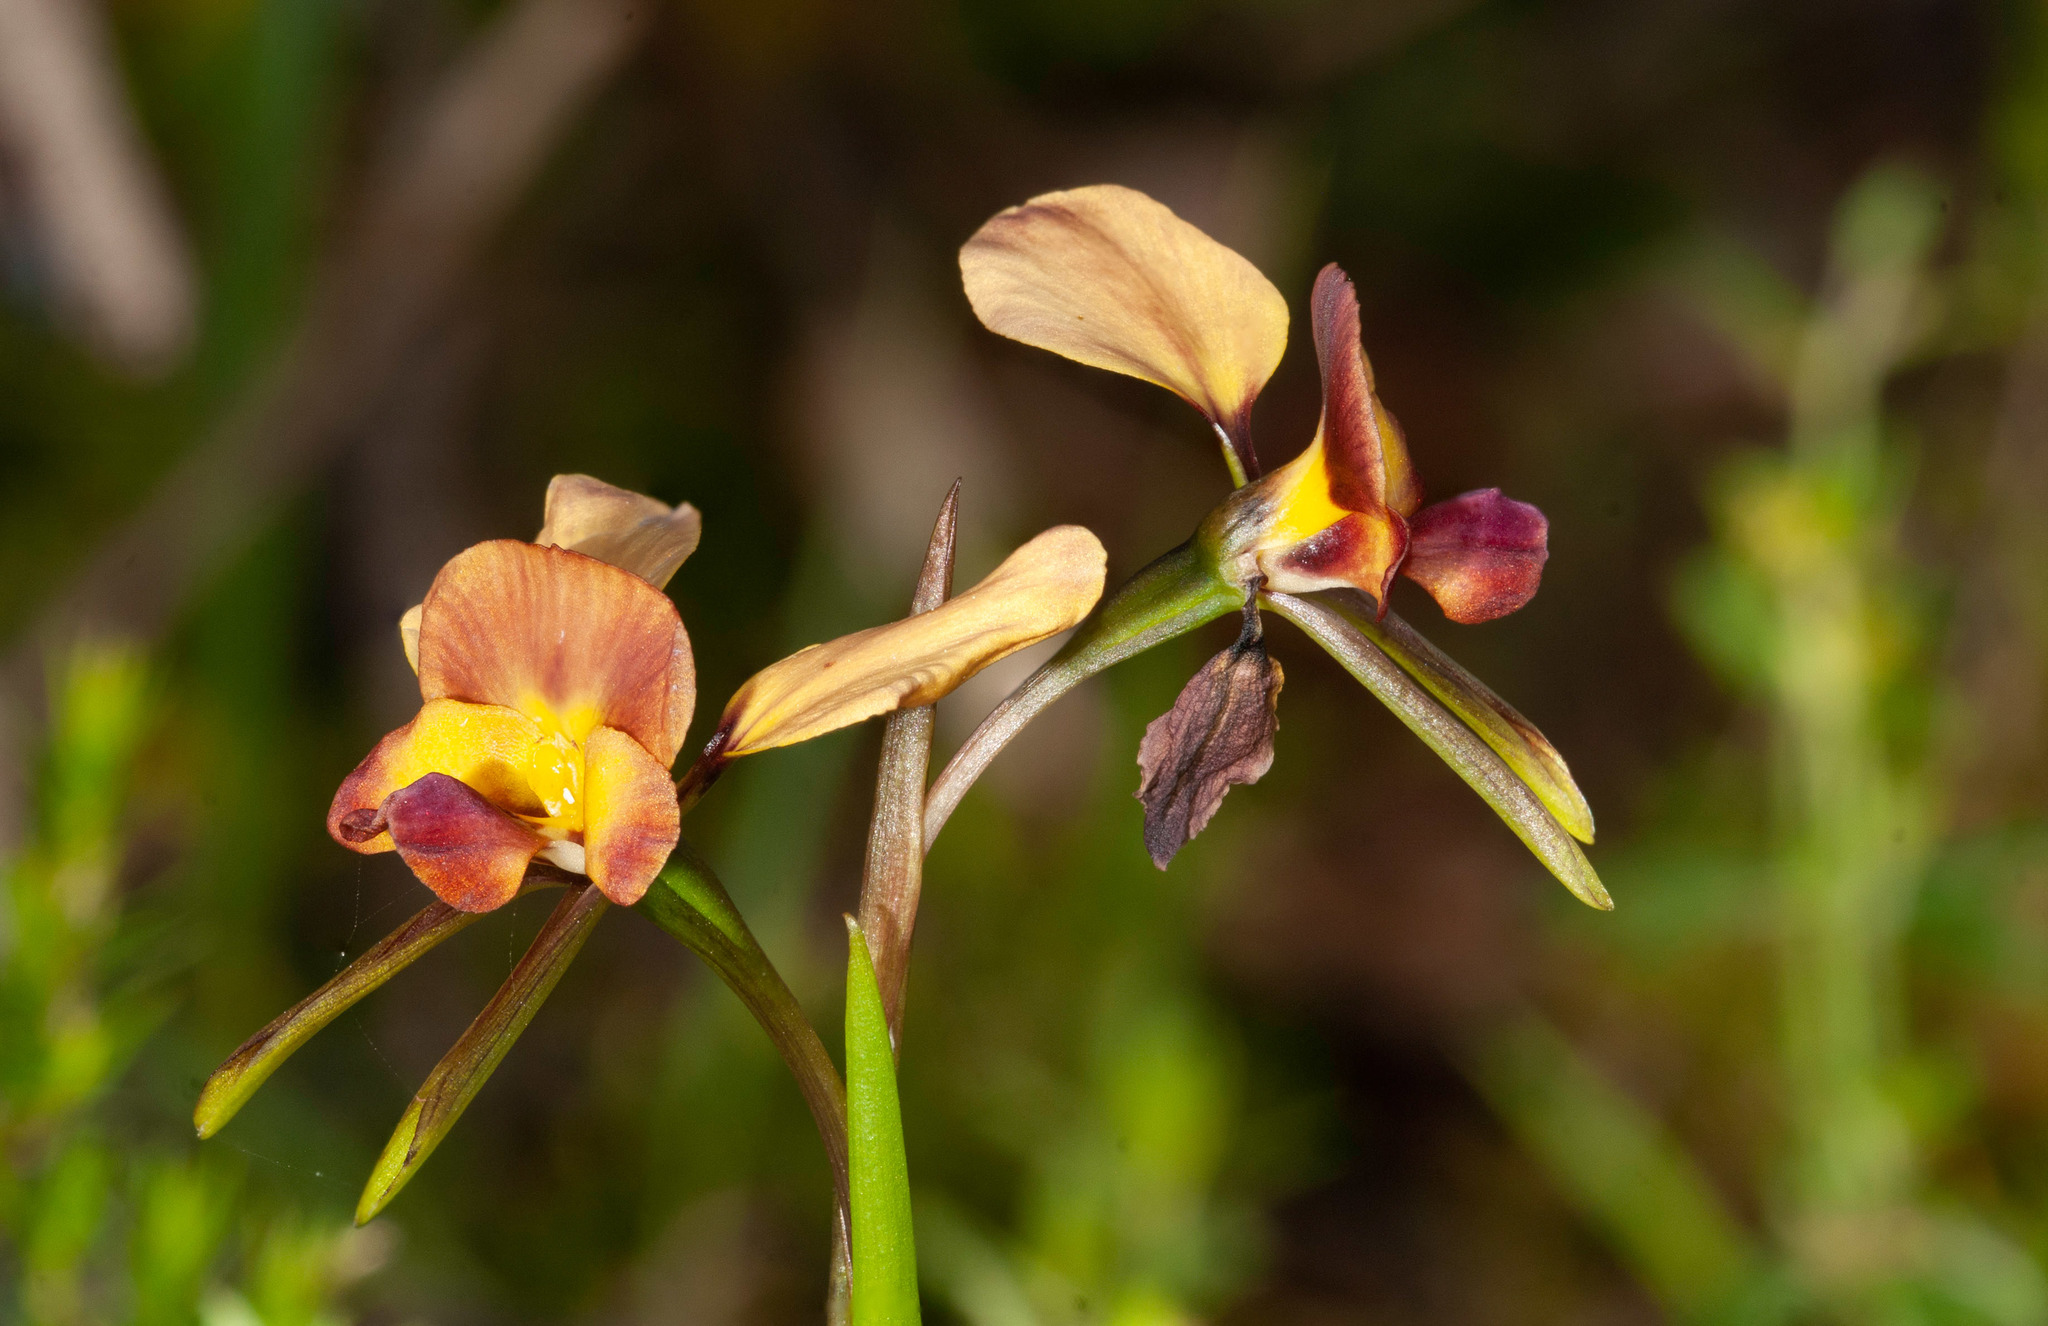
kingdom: Plantae
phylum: Tracheophyta
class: Liliopsida
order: Asparagales
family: Orchidaceae
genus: Diuris
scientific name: Diuris orientis
